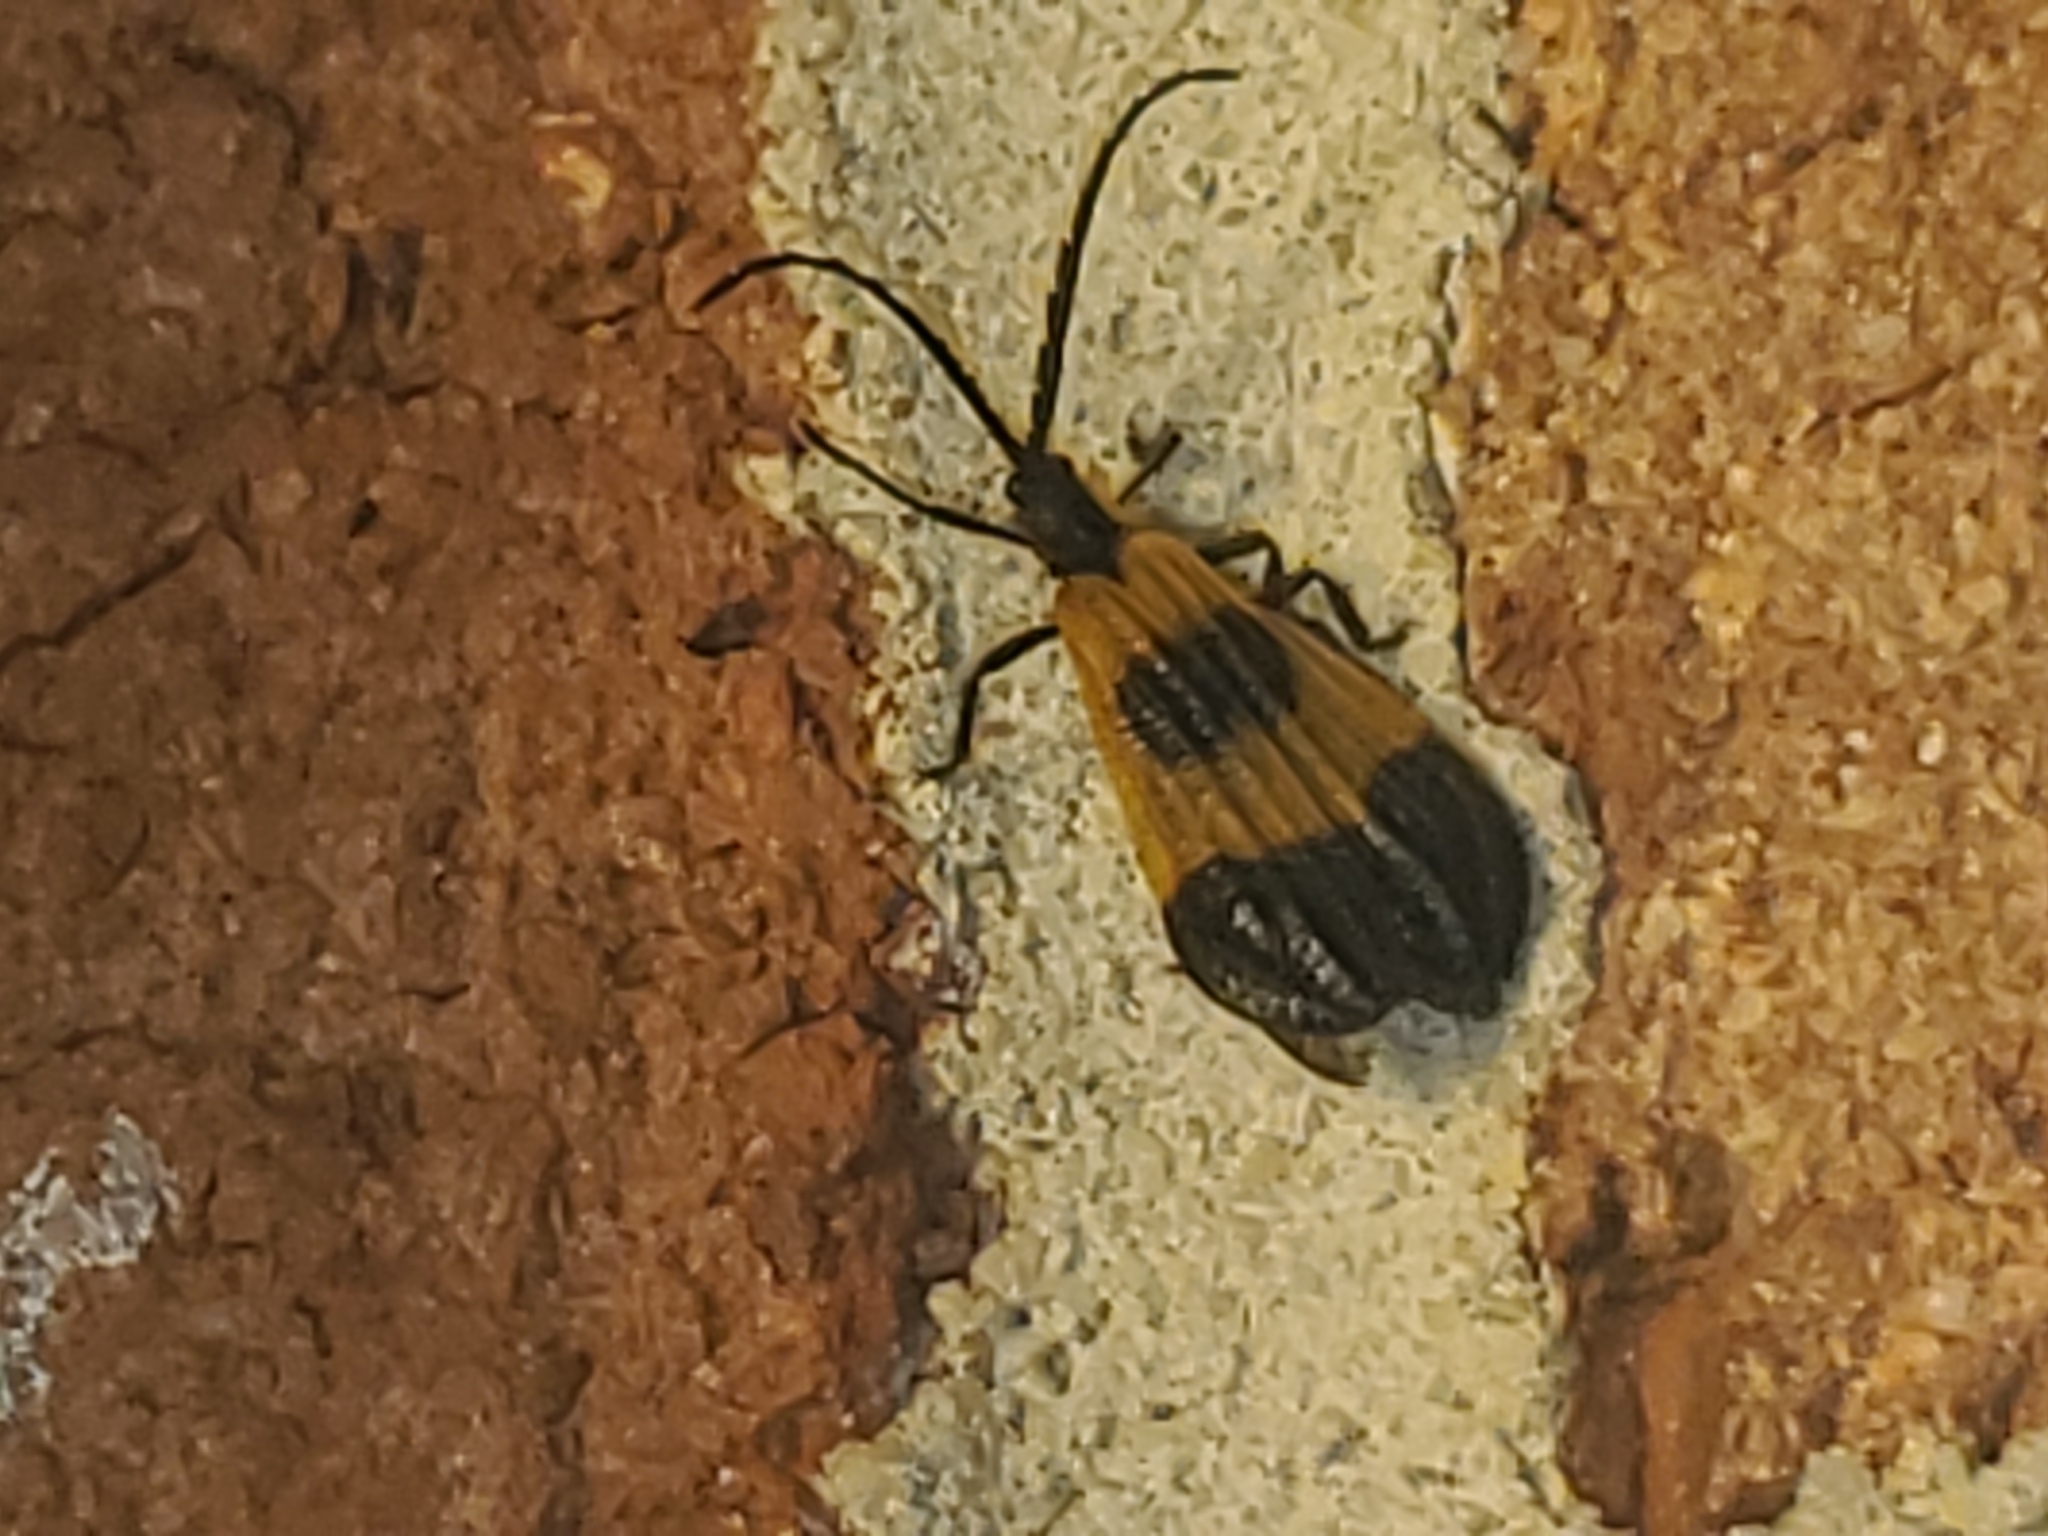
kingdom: Animalia
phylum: Arthropoda
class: Insecta
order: Coleoptera
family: Lycidae
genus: Calopteron
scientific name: Calopteron terminale
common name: End band net-winged beetle
